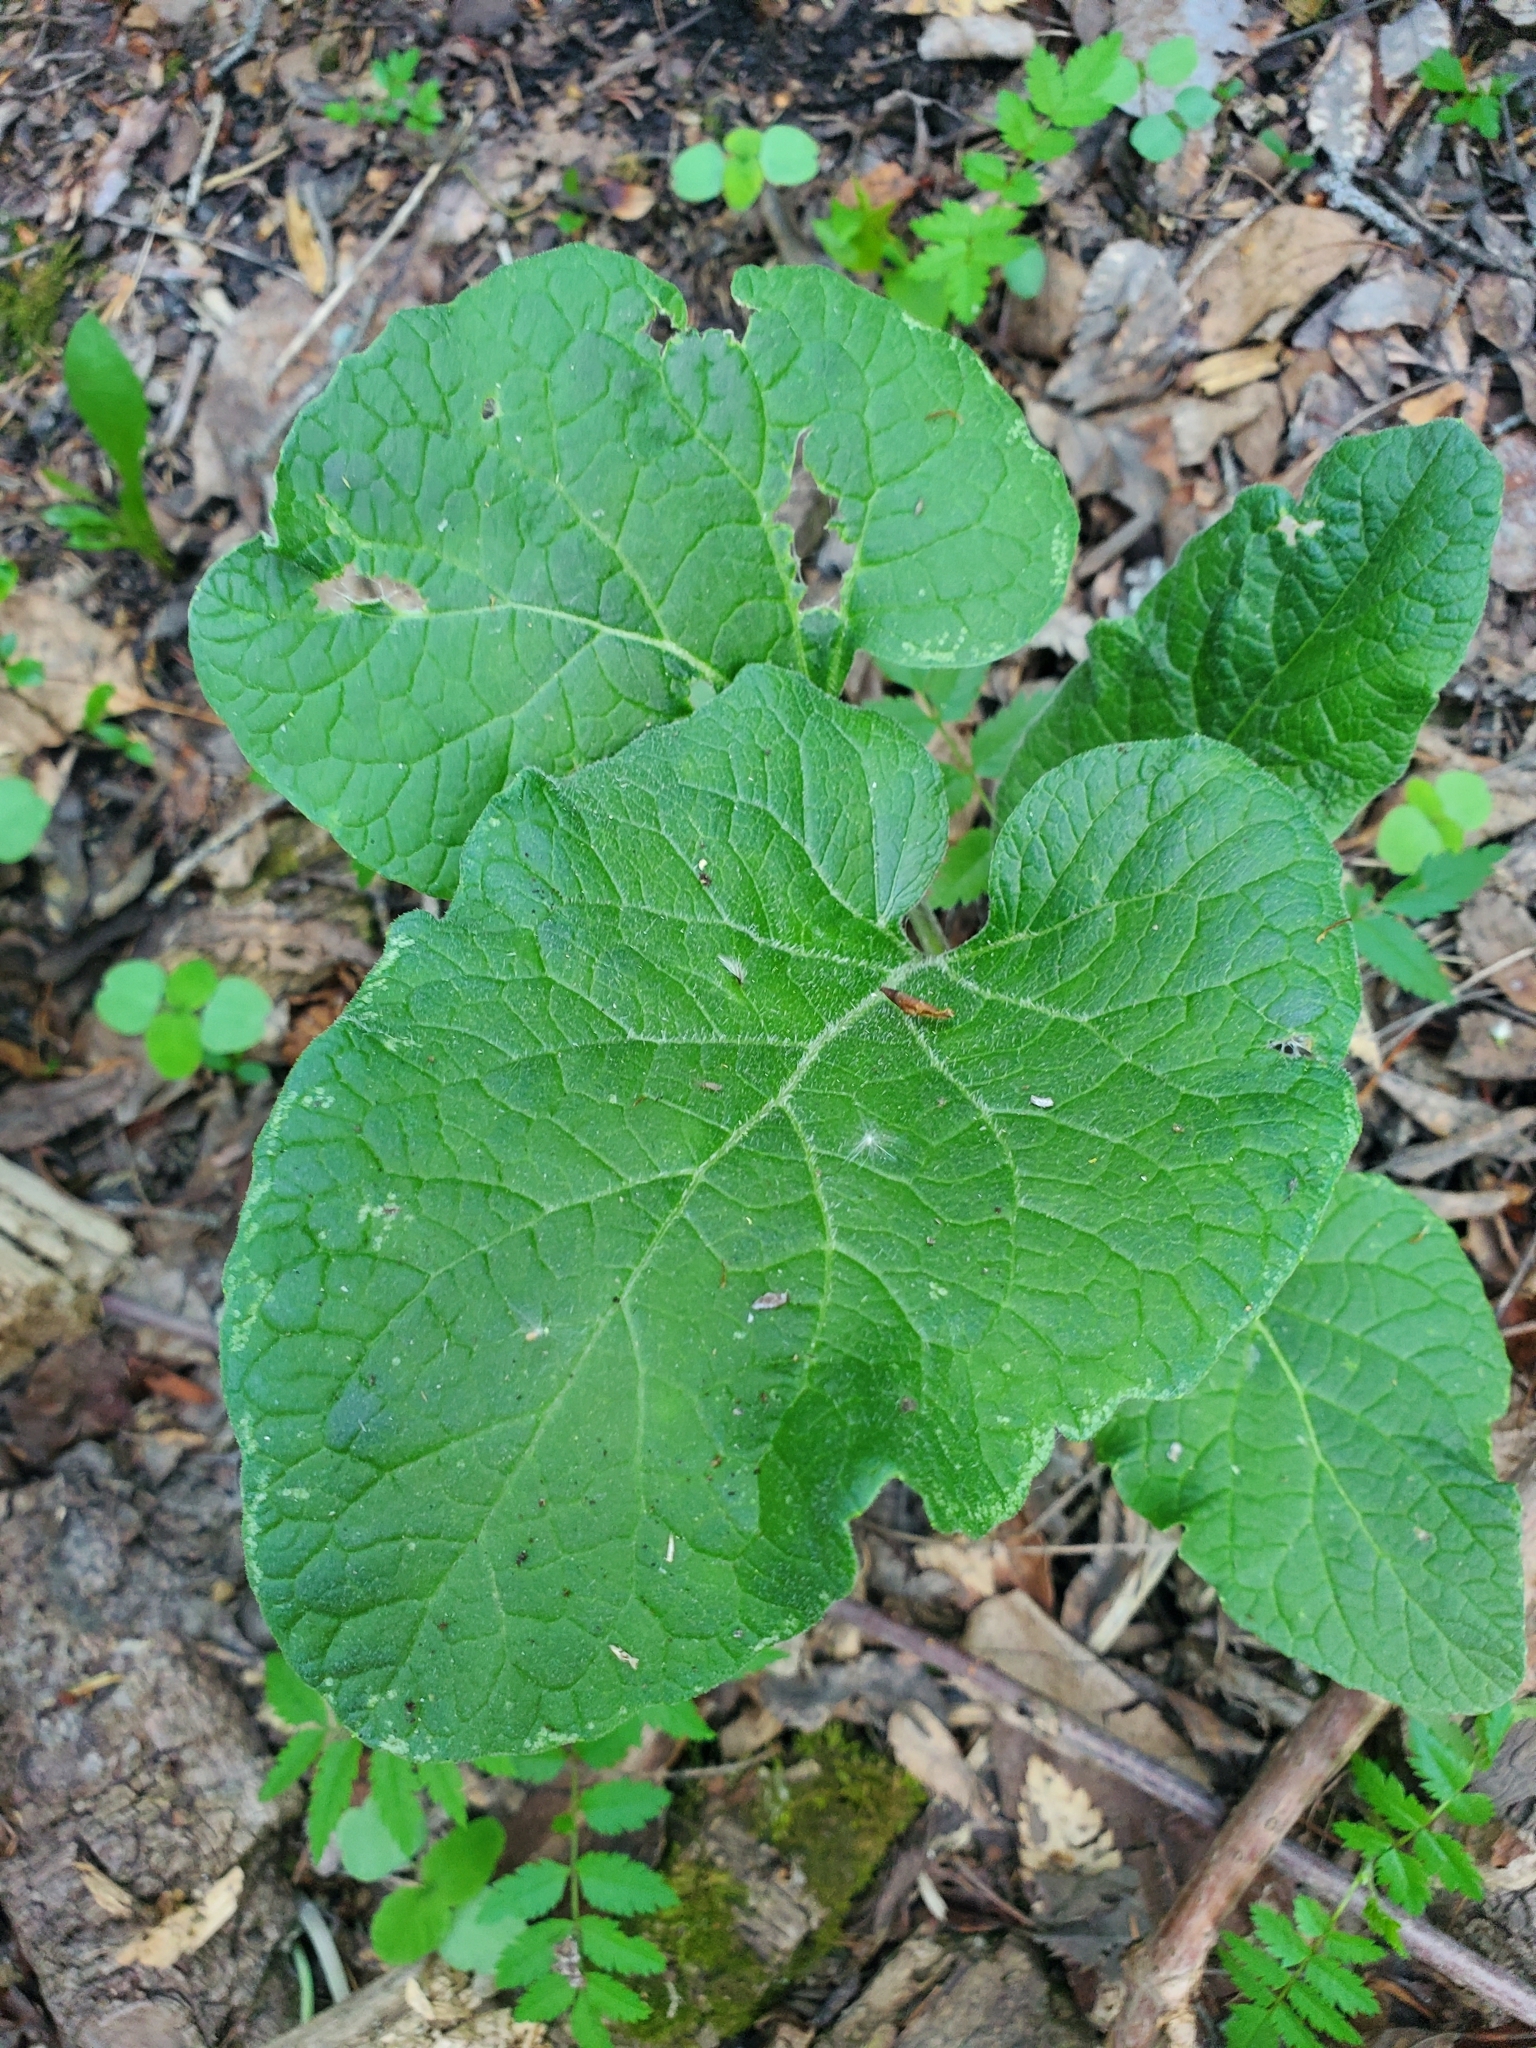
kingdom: Plantae
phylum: Tracheophyta
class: Magnoliopsida
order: Asterales
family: Asteraceae
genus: Arctium
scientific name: Arctium
